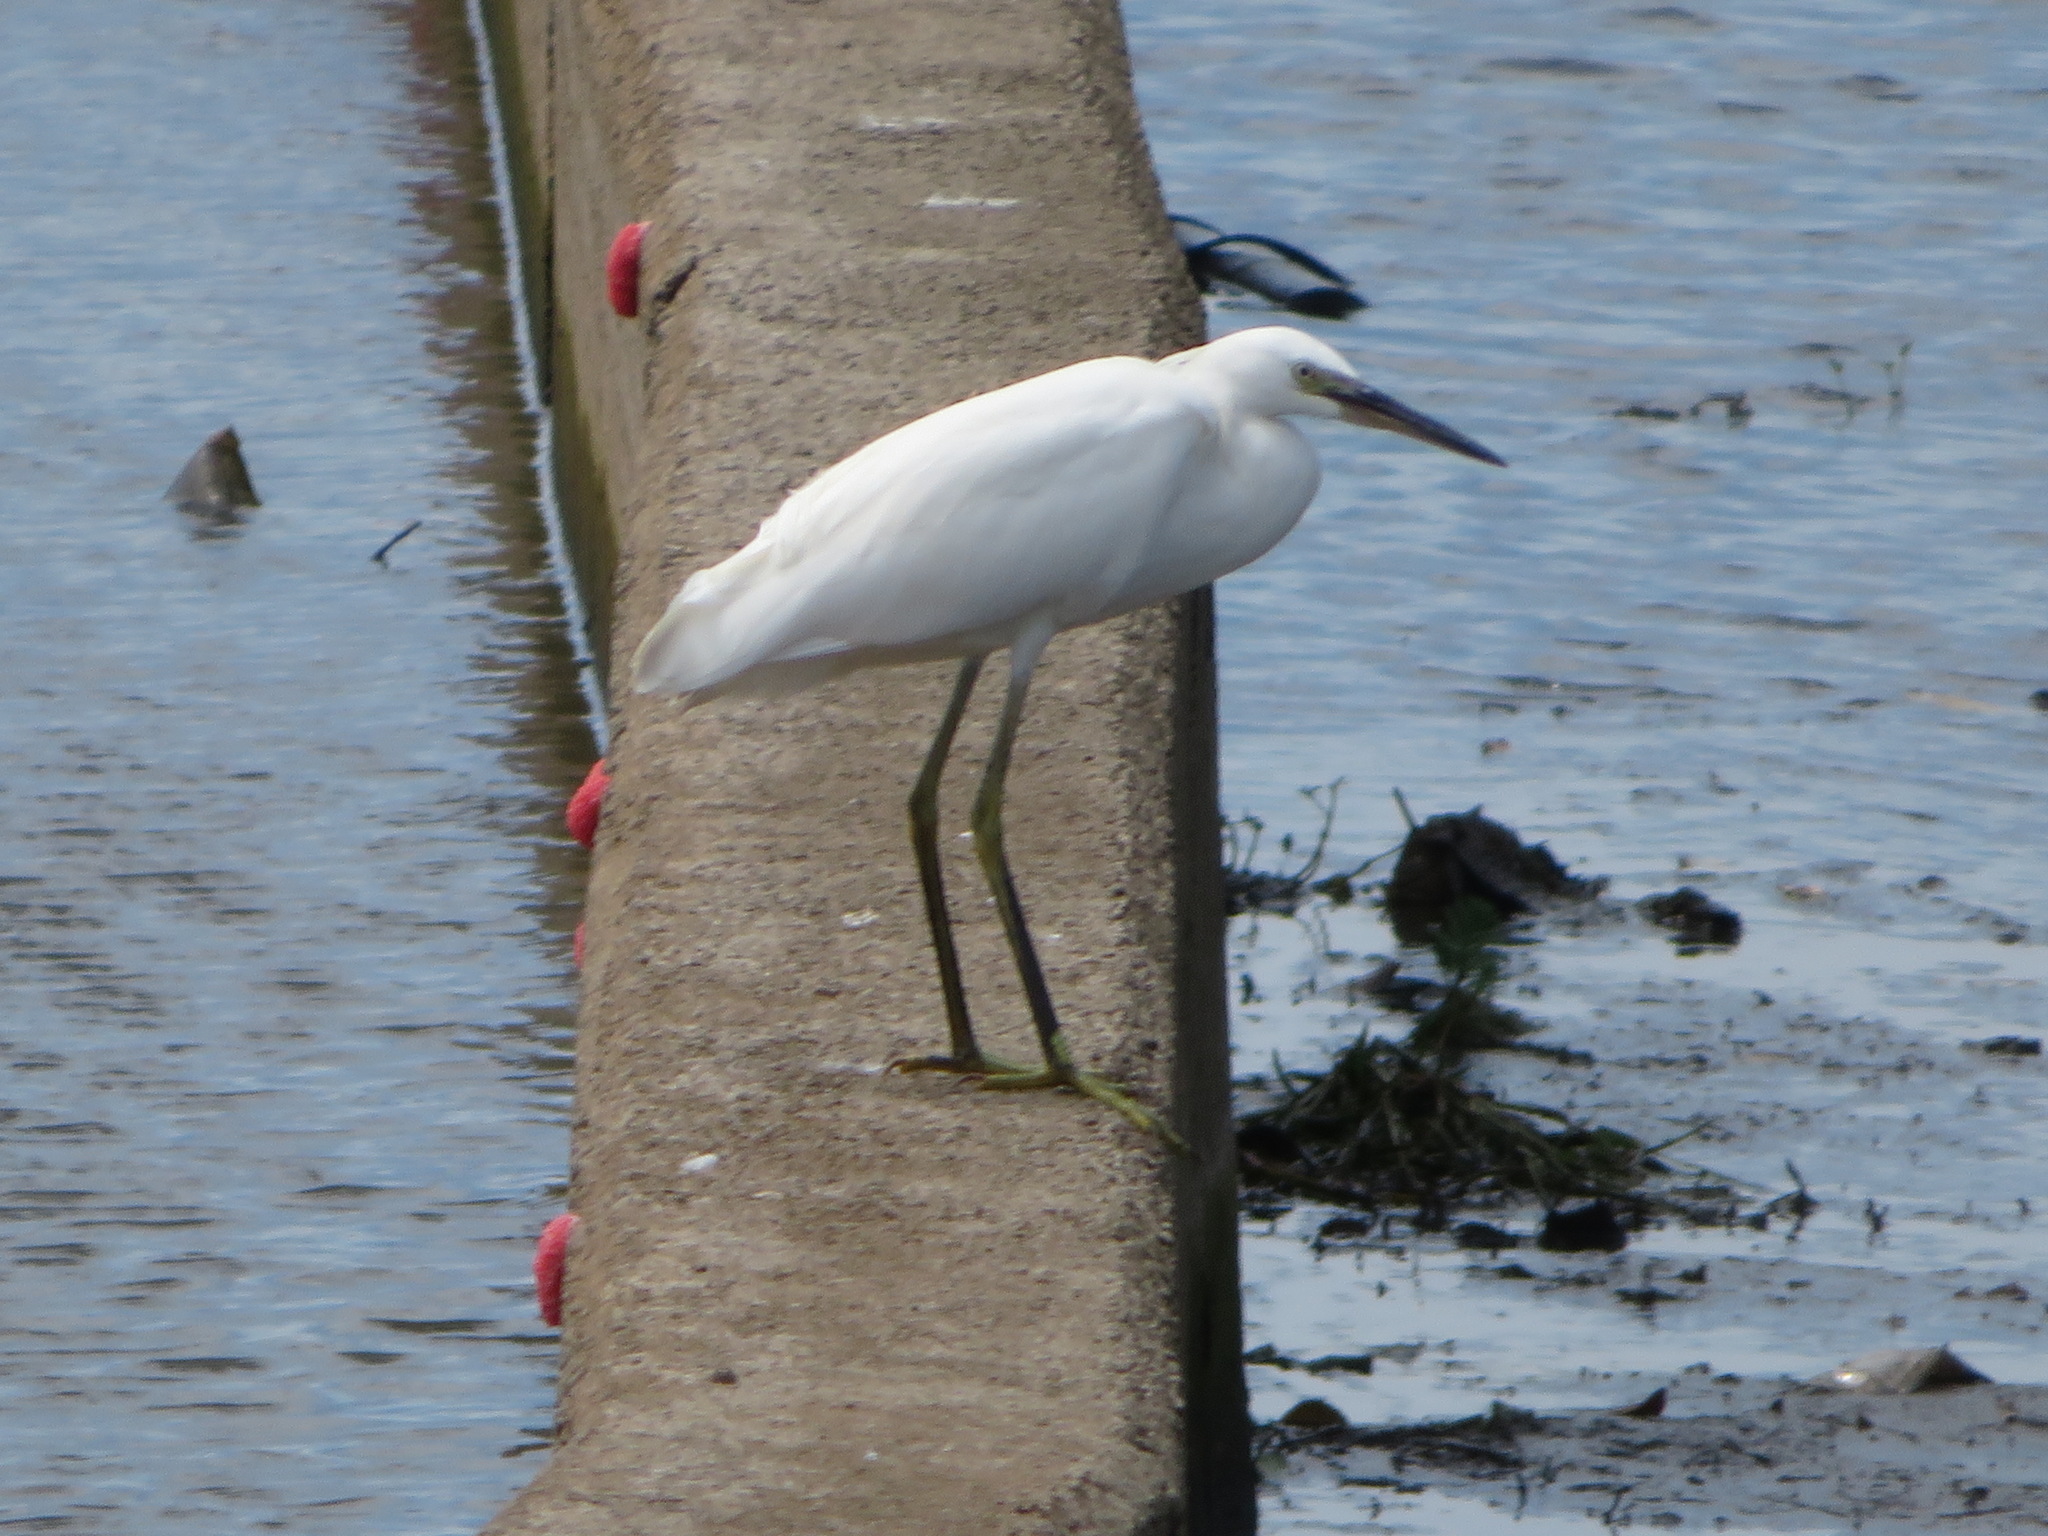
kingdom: Animalia
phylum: Chordata
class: Aves
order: Pelecaniformes
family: Ardeidae
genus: Egretta
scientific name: Egretta garzetta
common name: Little egret
